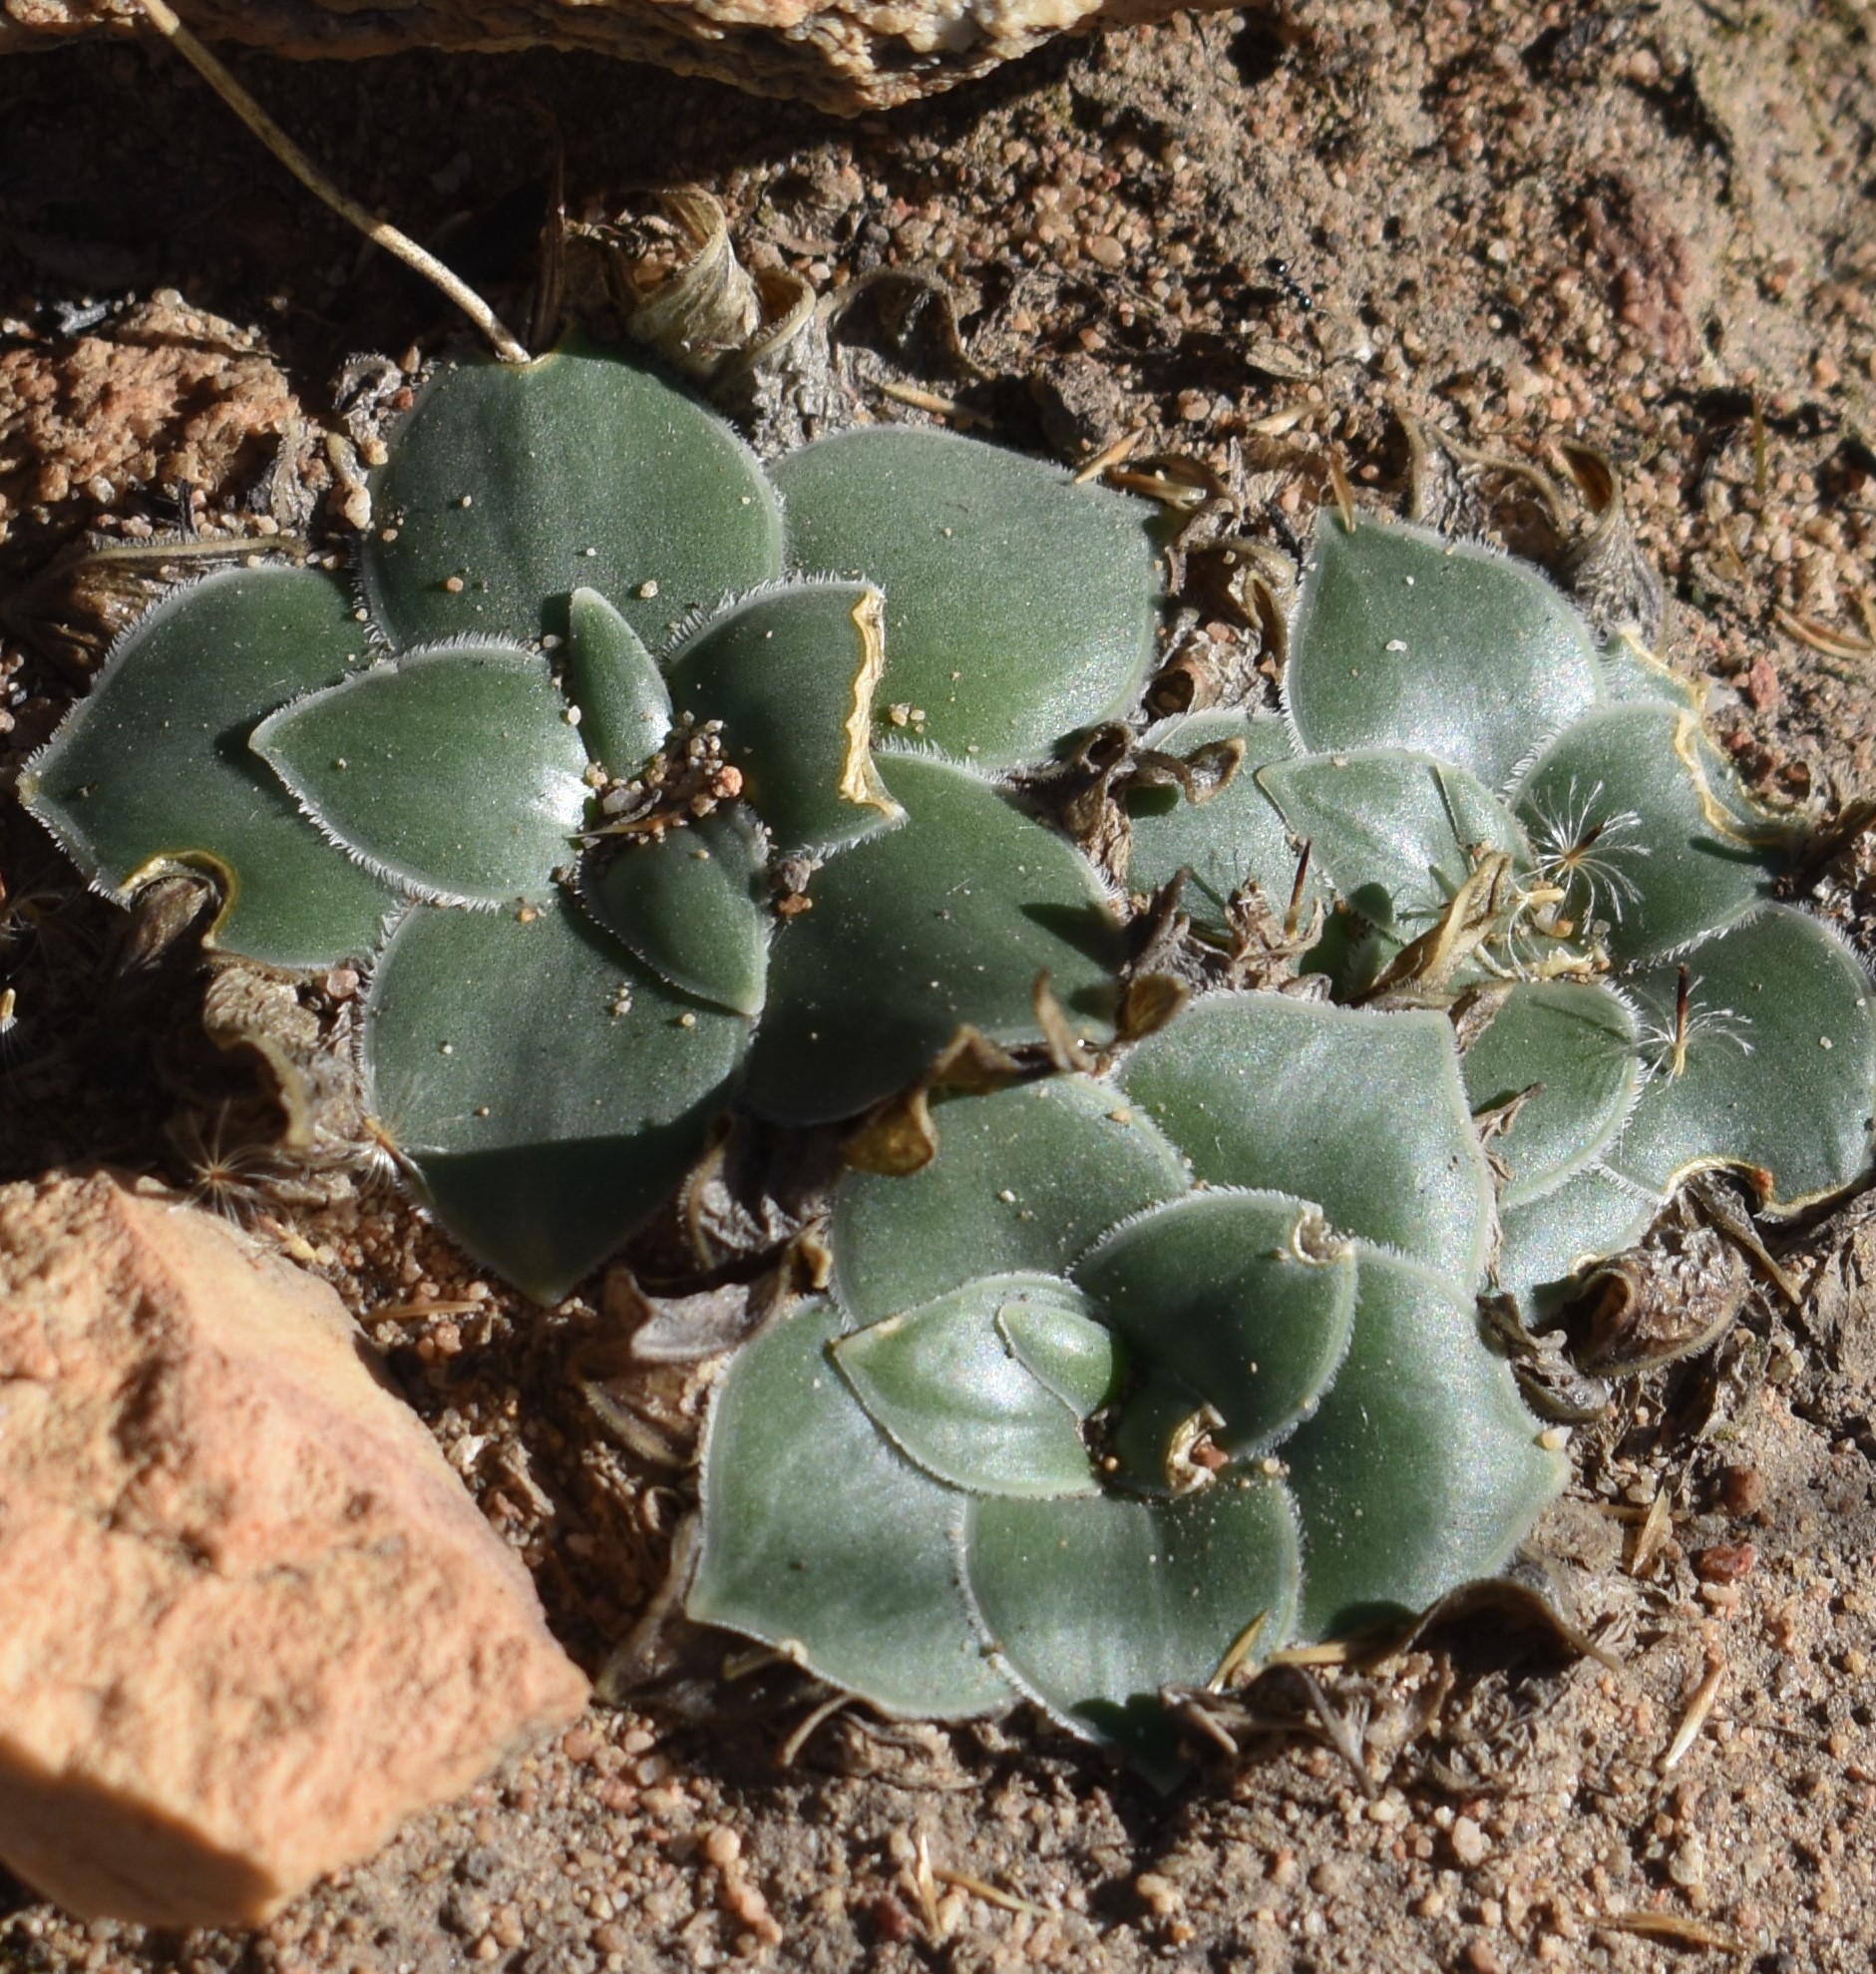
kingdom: Plantae
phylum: Tracheophyta
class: Liliopsida
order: Asparagales
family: Asparagaceae
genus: Drimia
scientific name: Drimia ciliata
